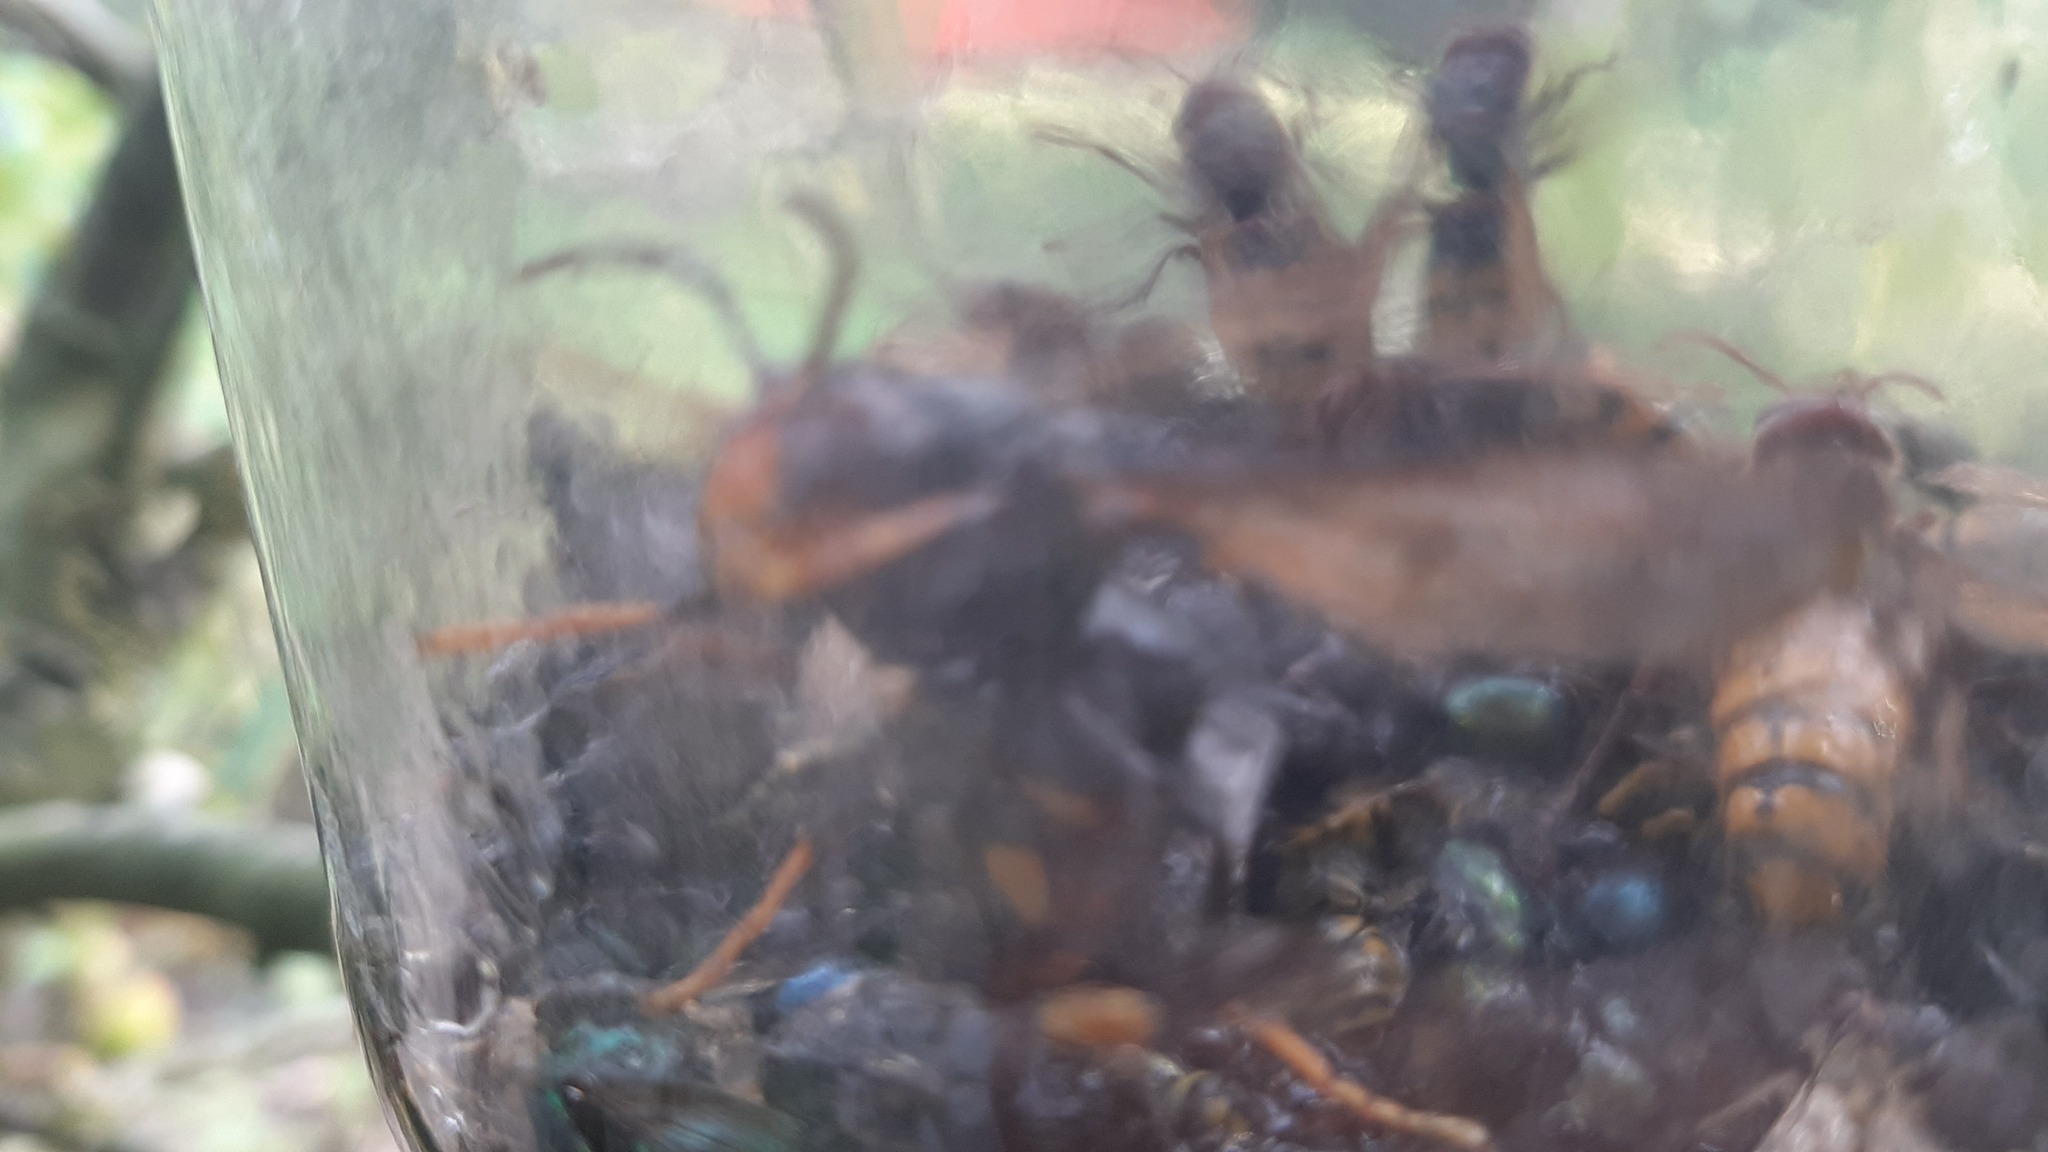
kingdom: Animalia
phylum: Arthropoda
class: Insecta
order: Hymenoptera
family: Vespidae
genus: Vespa
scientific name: Vespa velutina
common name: Asian hornet
